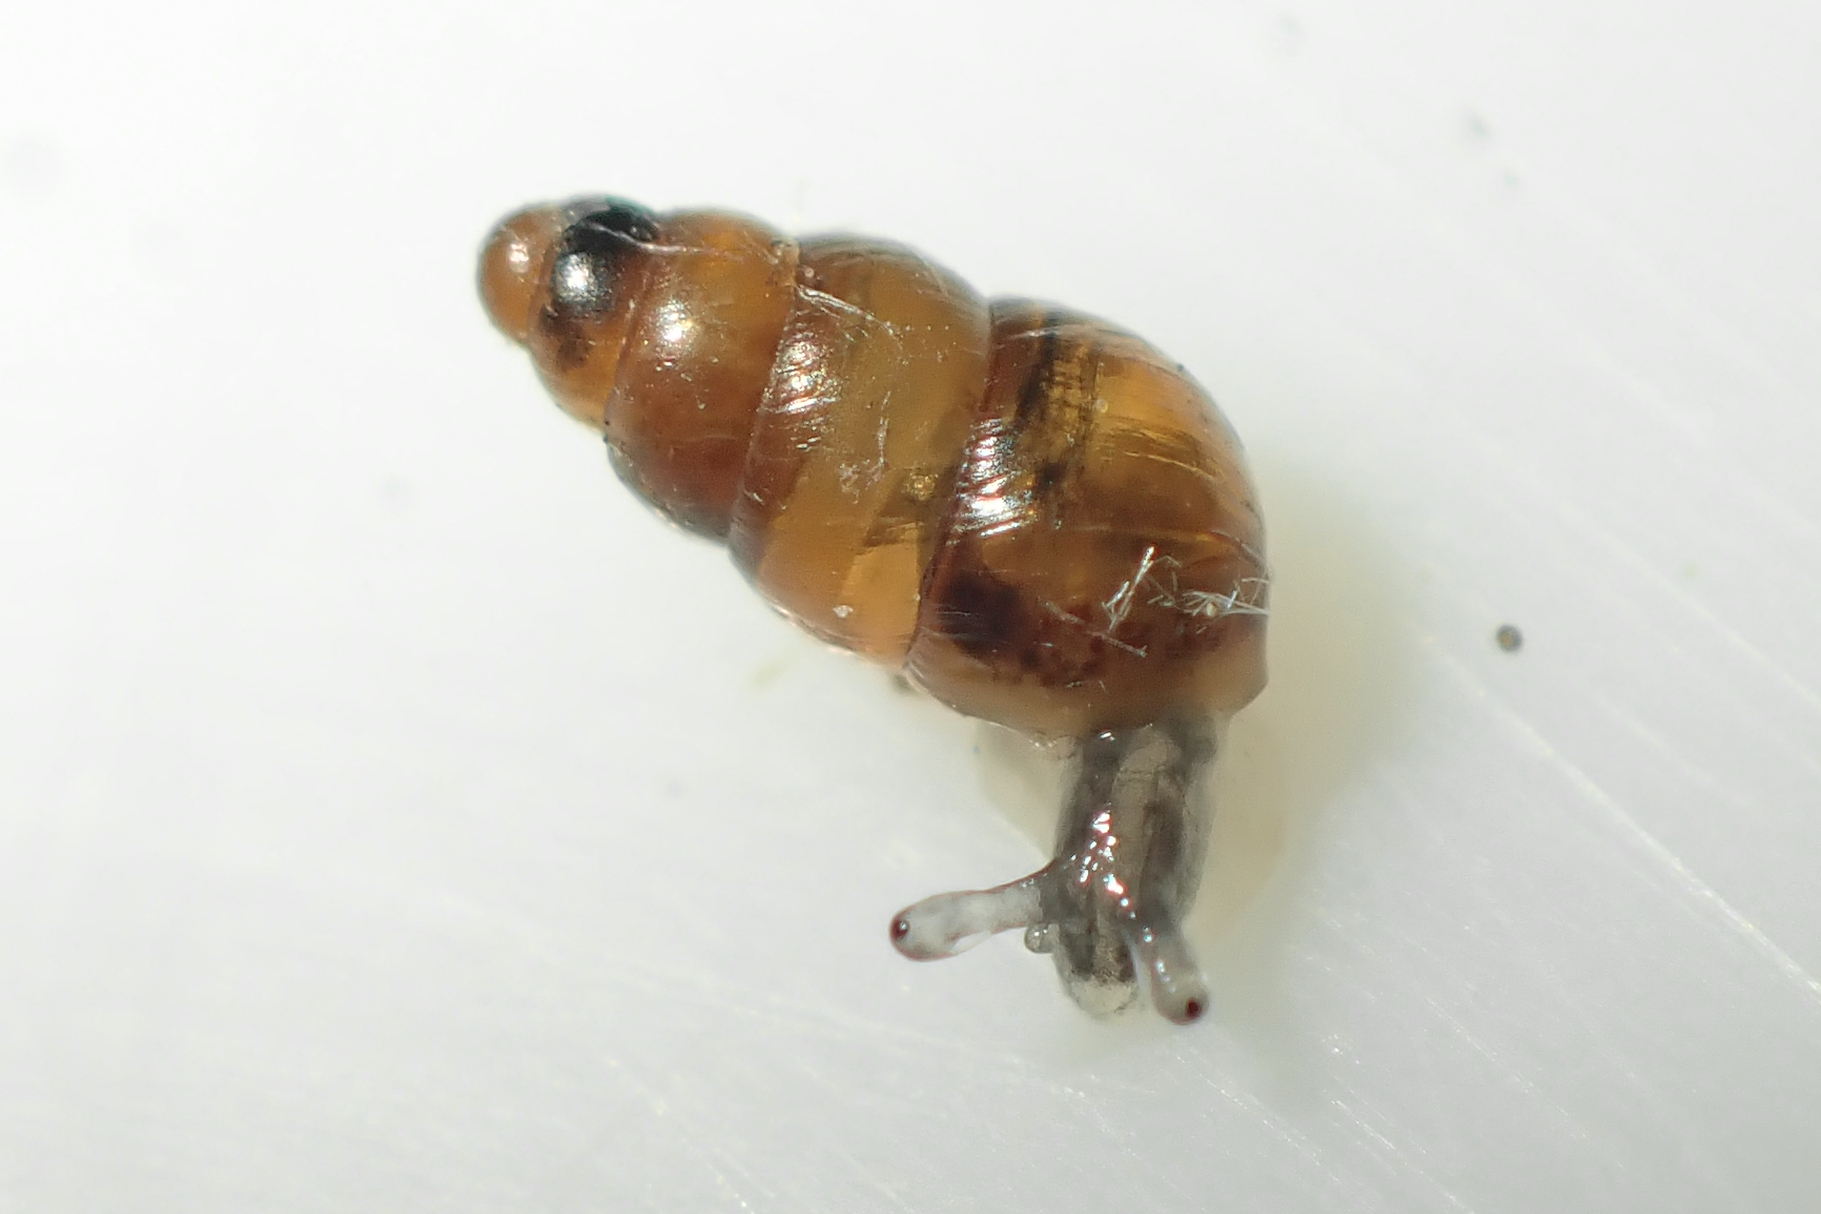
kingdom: Animalia
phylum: Mollusca
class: Gastropoda
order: Stylommatophora
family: Achatinellidae
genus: Tornatellinops
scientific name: Tornatellinops novoseelandicus
